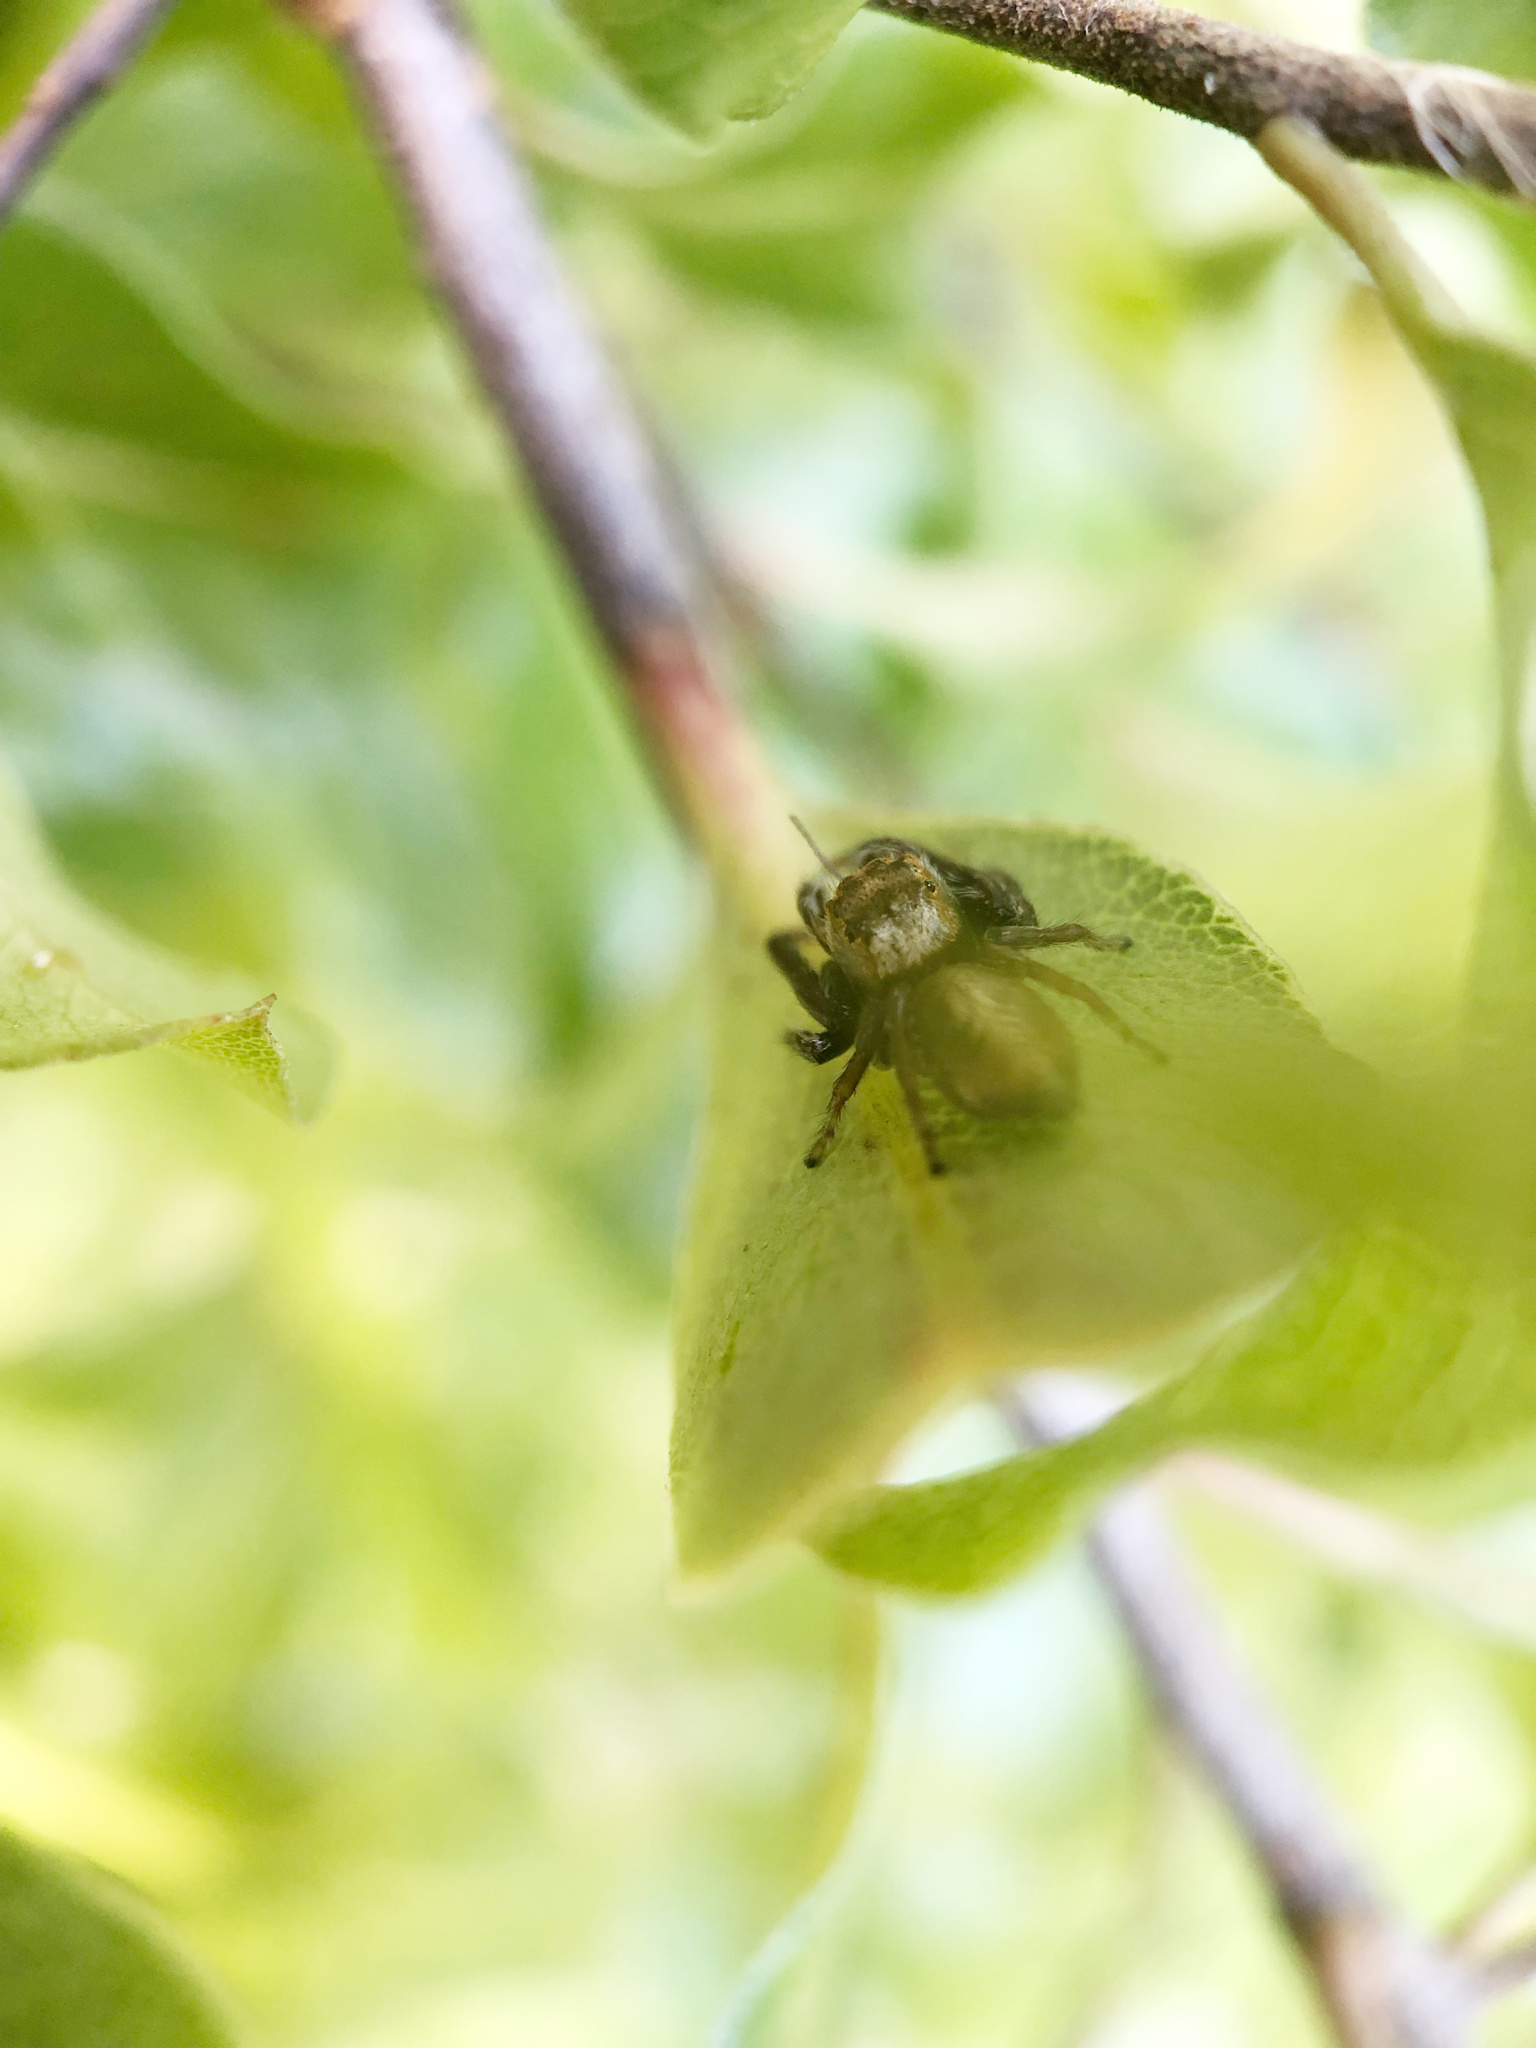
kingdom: Animalia
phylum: Arthropoda
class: Arachnida
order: Araneae
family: Salticidae
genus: Opisthoncus
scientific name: Opisthoncus polyphemus
